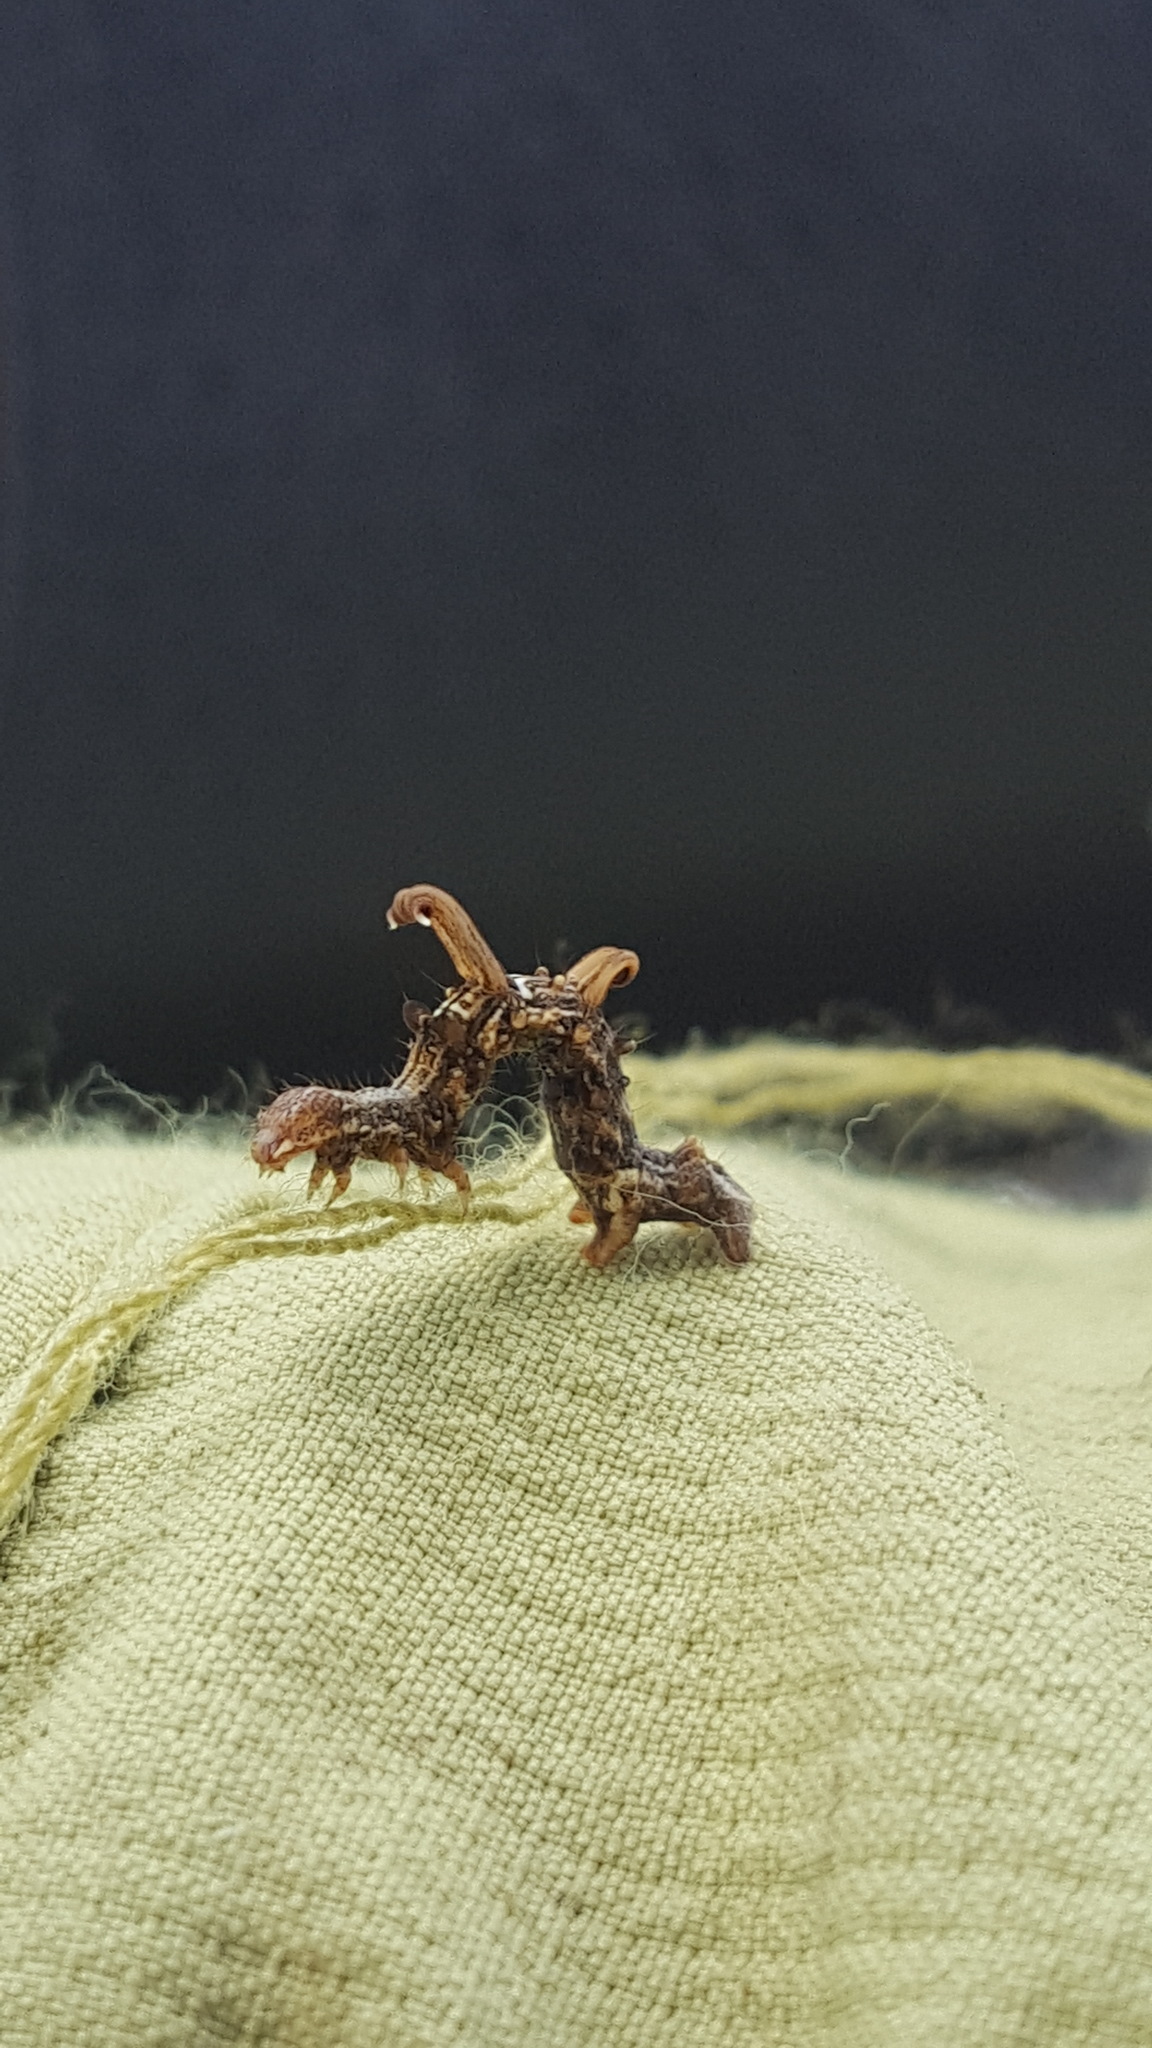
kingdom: Animalia
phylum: Arthropoda
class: Insecta
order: Lepidoptera
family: Geometridae
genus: Nematocampa
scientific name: Nematocampa resistaria
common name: Horned spanworm moth
